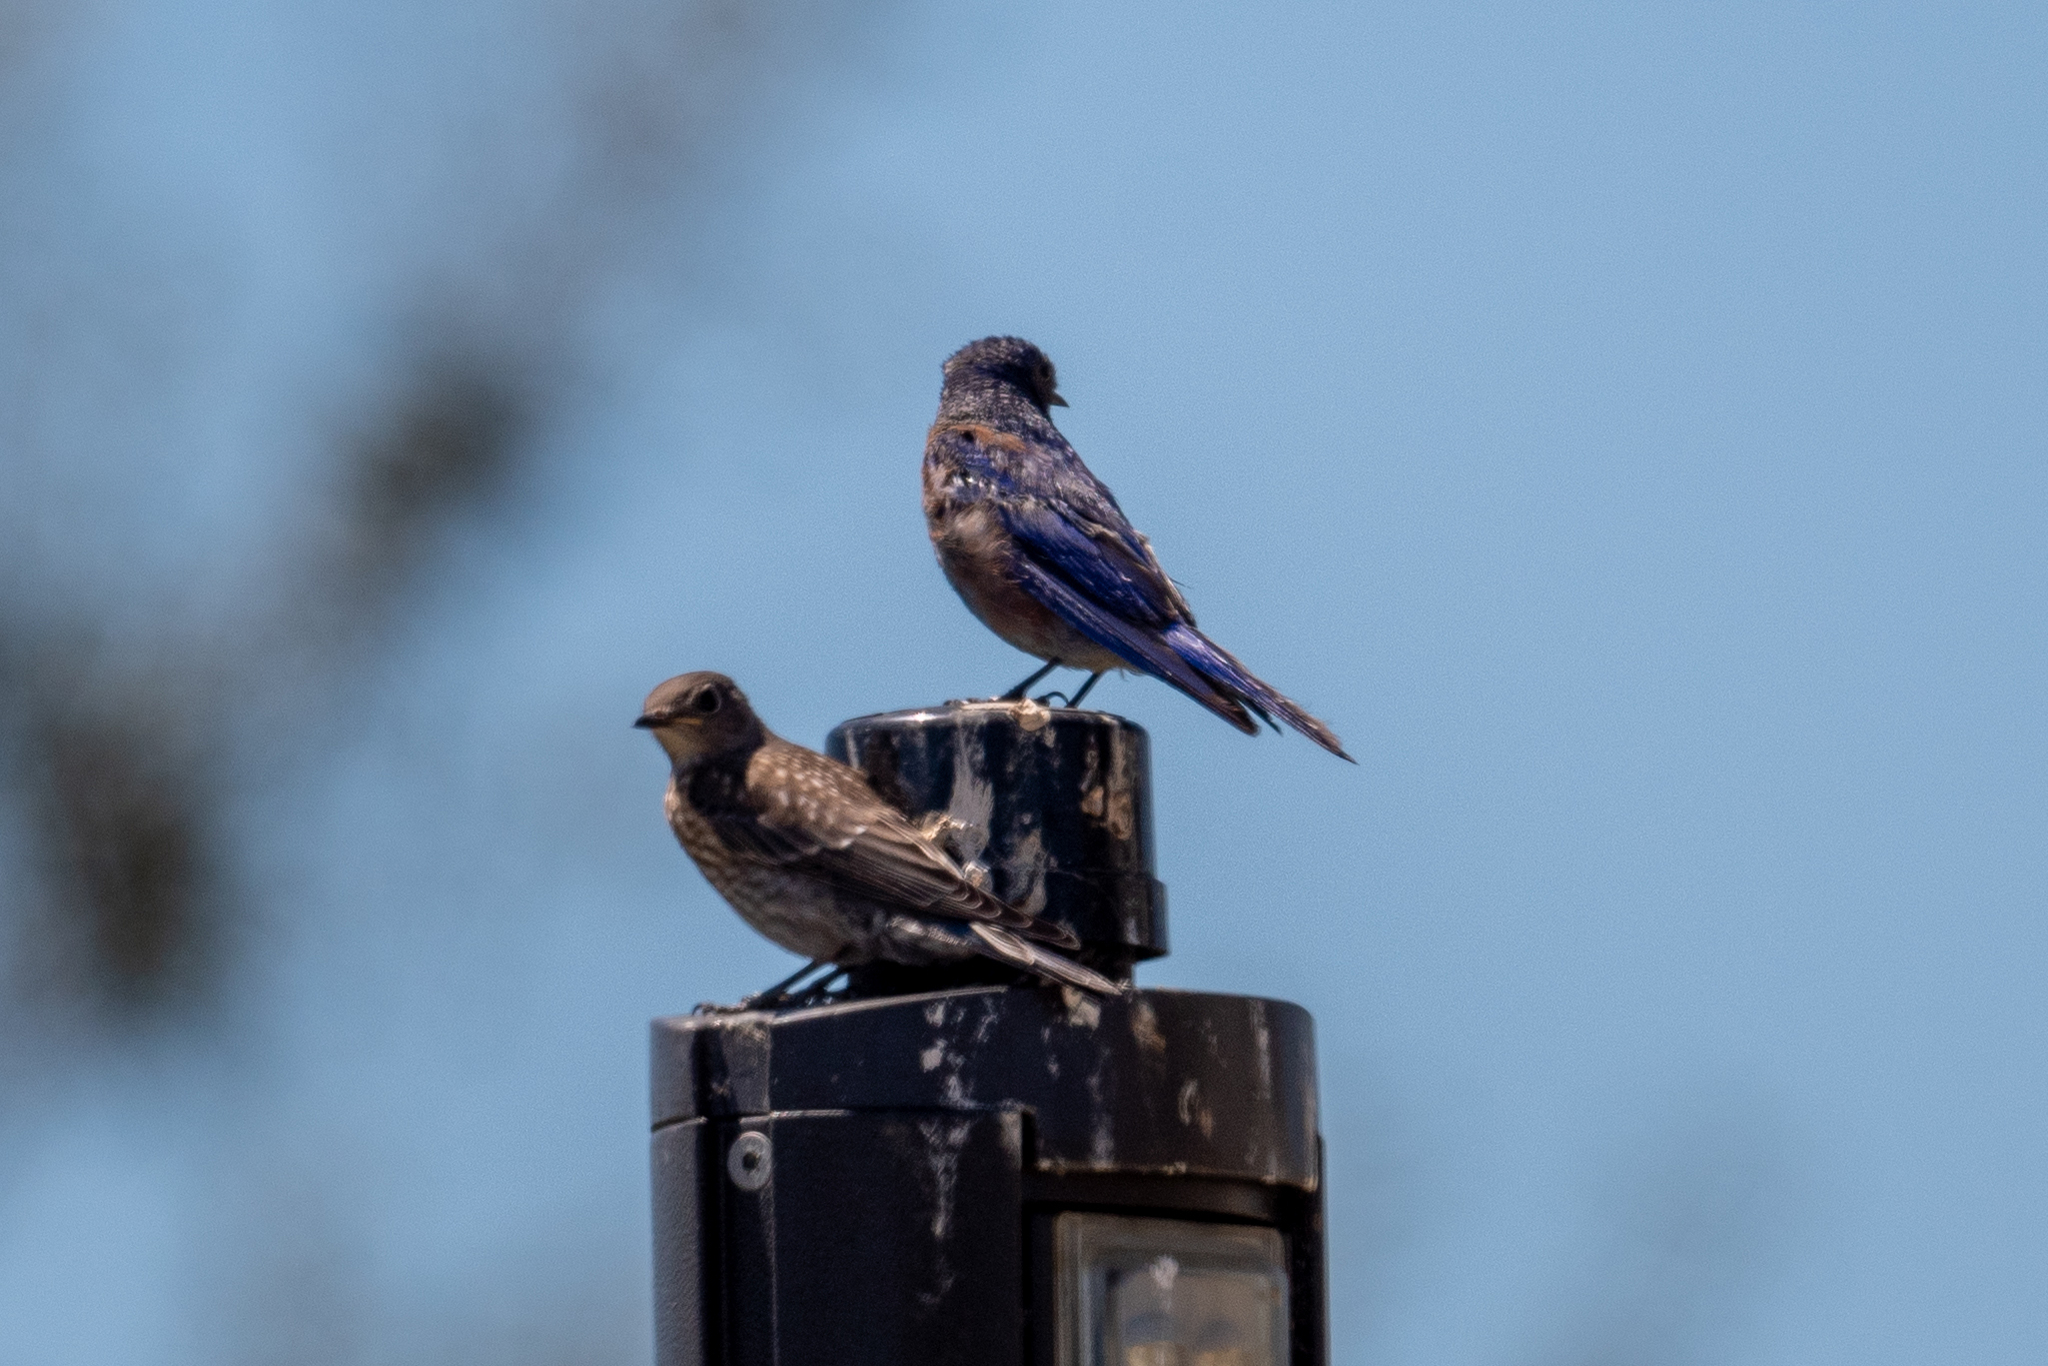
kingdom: Animalia
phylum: Chordata
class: Aves
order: Passeriformes
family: Turdidae
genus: Sialia
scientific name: Sialia mexicana
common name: Western bluebird
